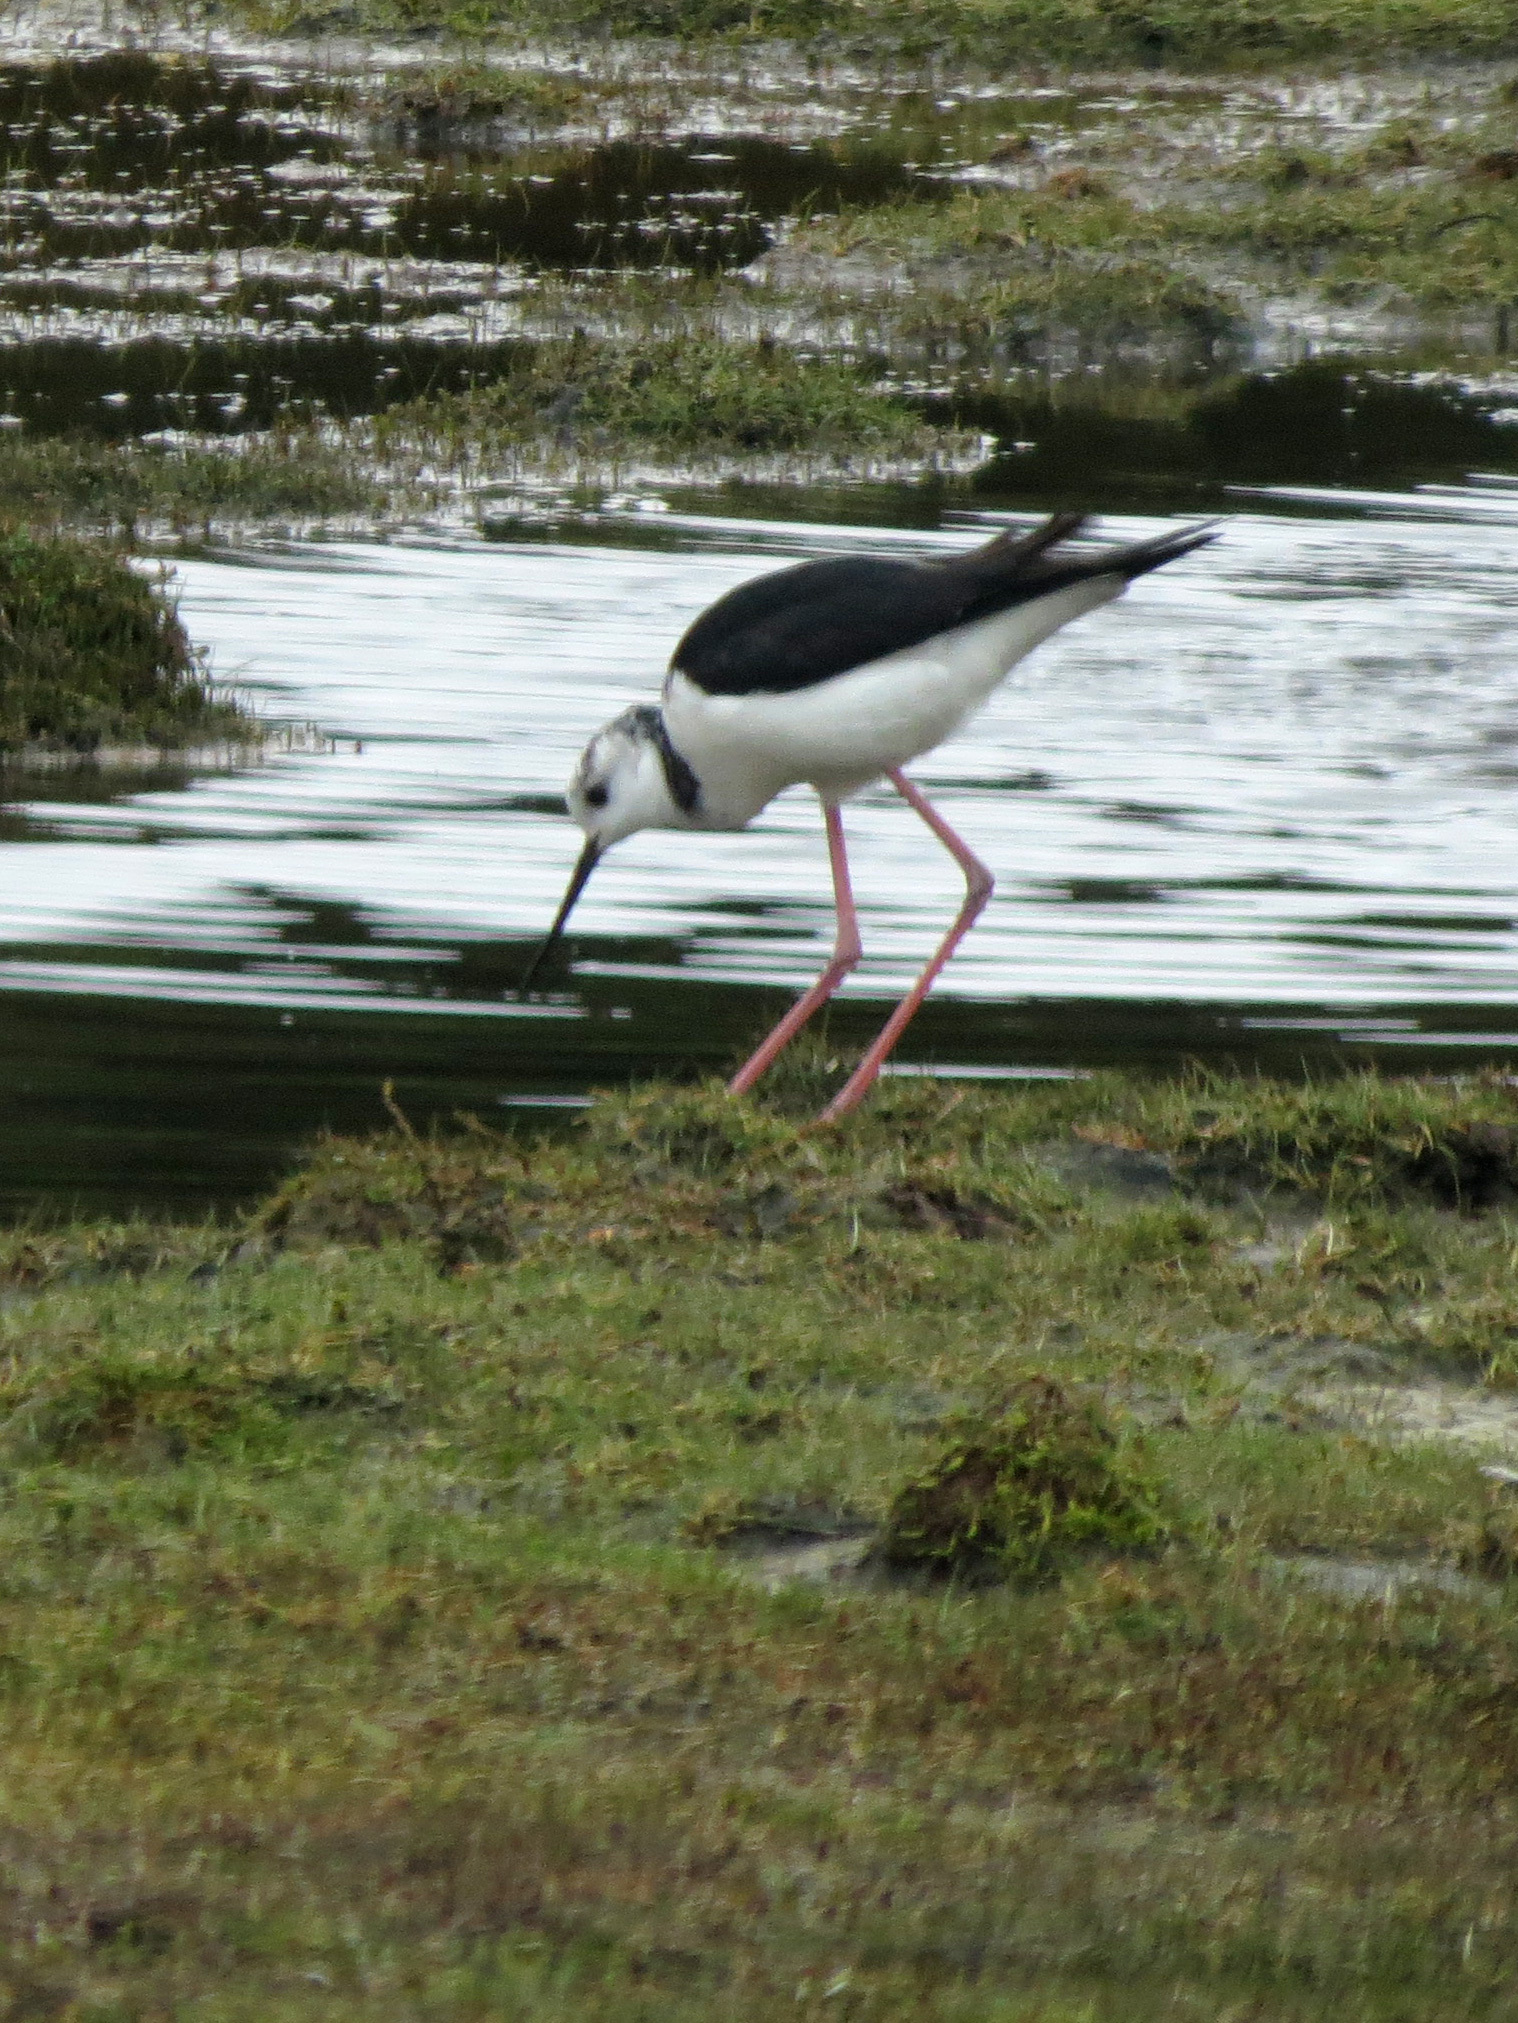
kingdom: Animalia
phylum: Chordata
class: Aves
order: Charadriiformes
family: Recurvirostridae
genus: Himantopus
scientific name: Himantopus leucocephalus
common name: White-headed stilt
